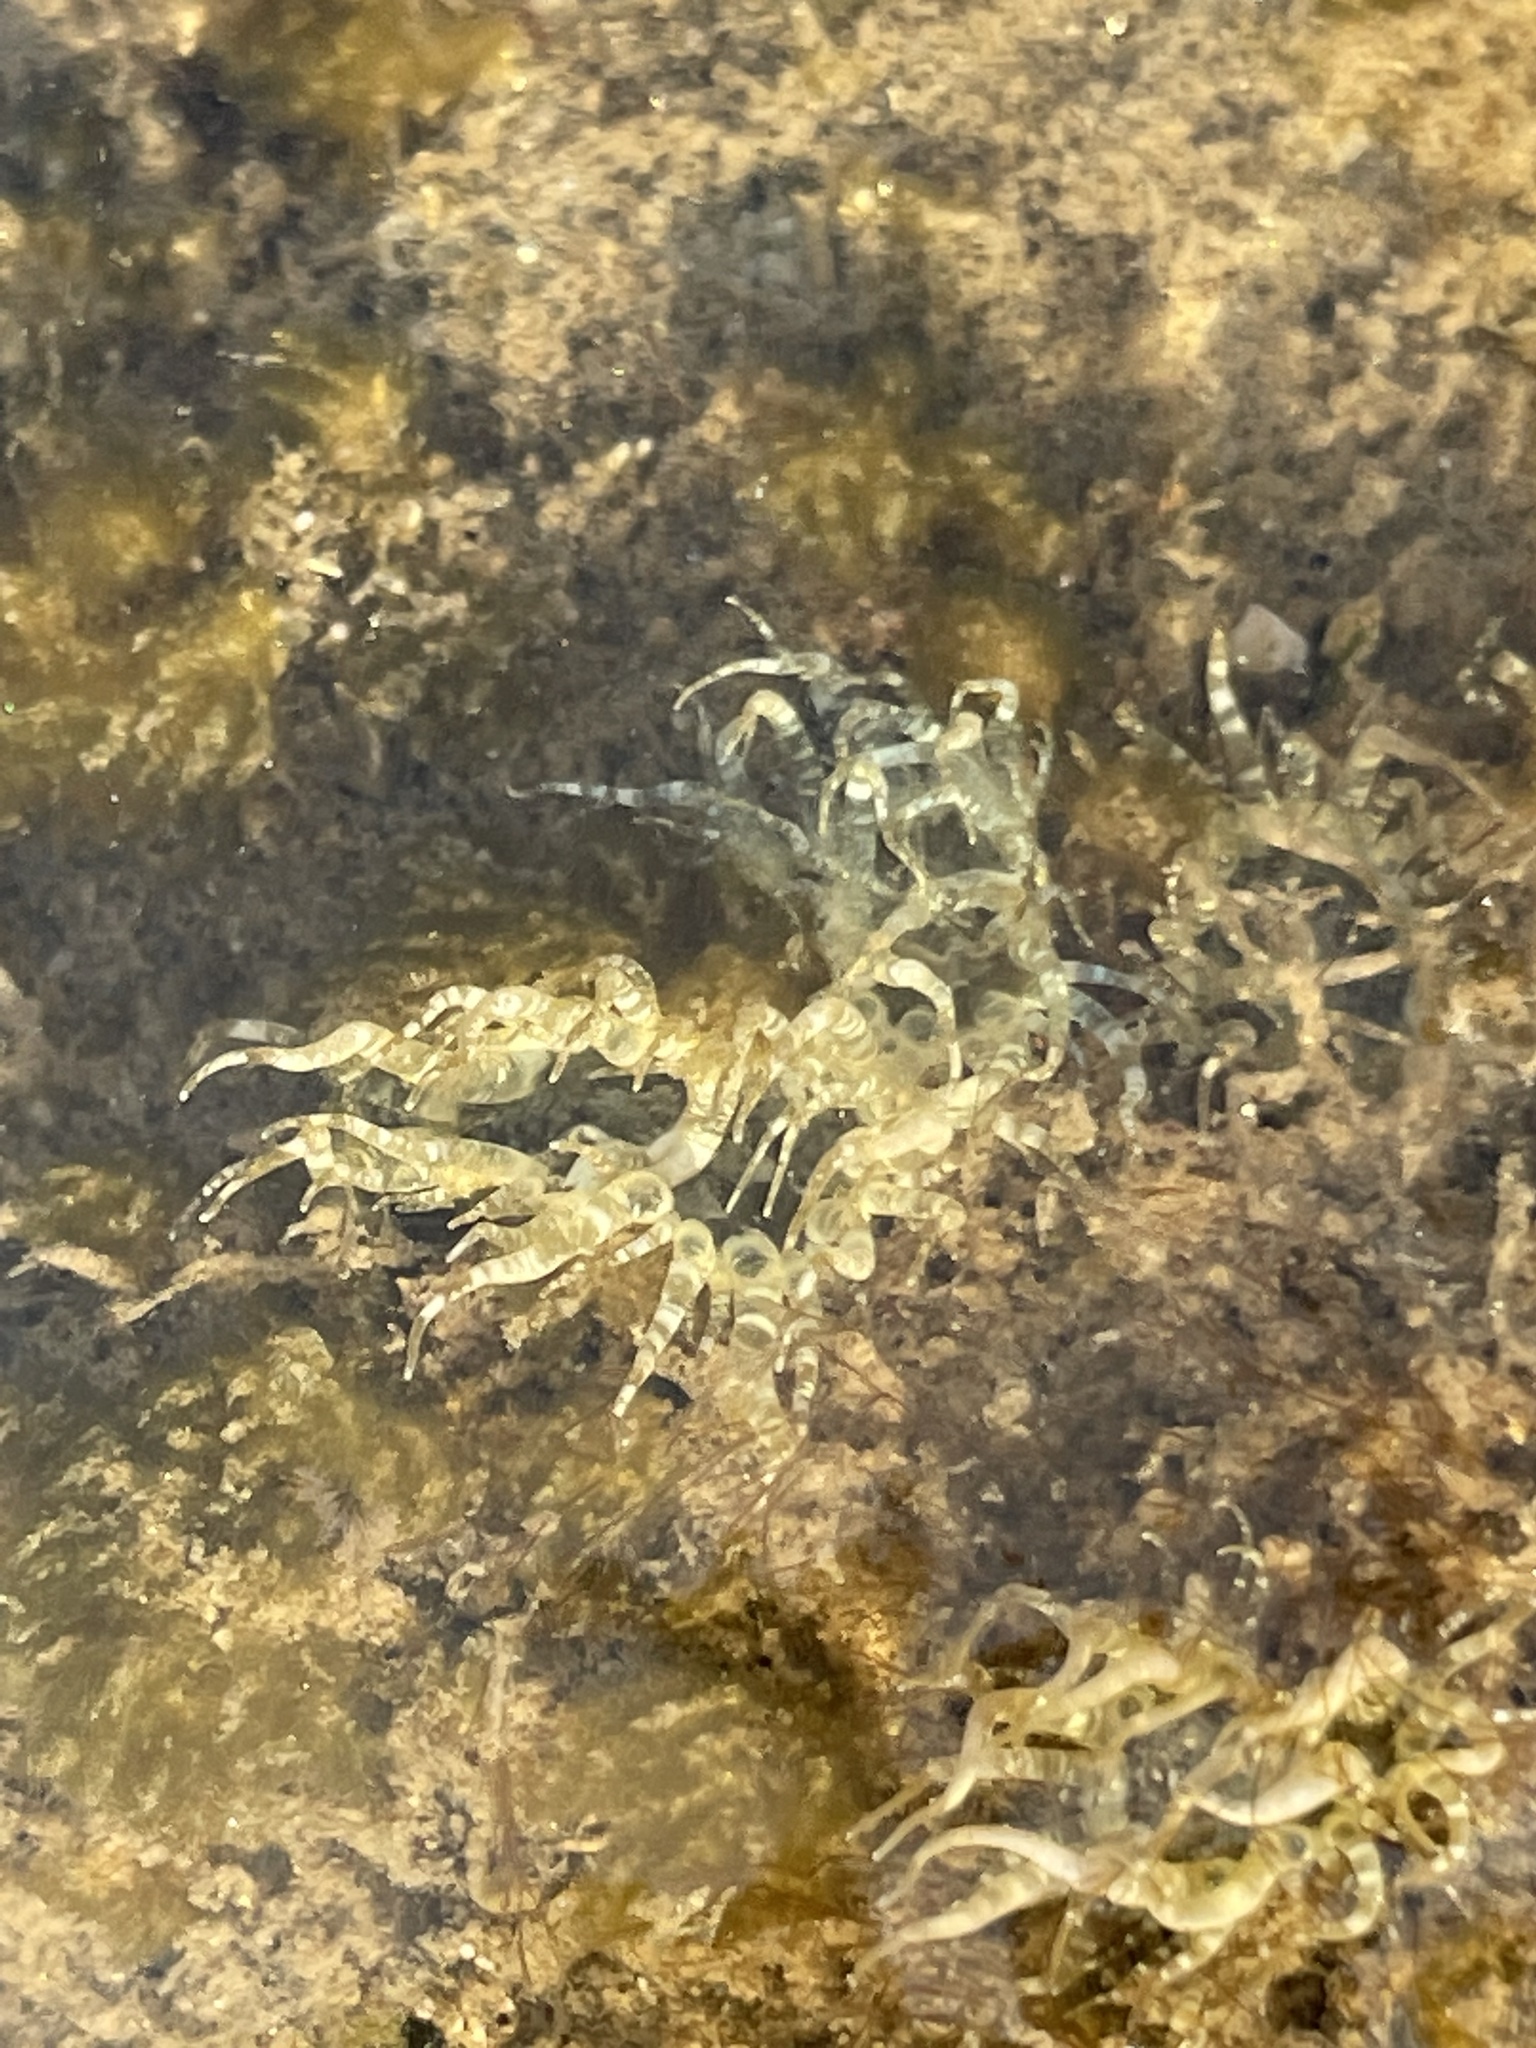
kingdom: Animalia
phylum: Cnidaria
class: Anthozoa
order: Actiniaria
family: Aiptasiidae
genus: Exaiptasia
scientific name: Exaiptasia diaphana
